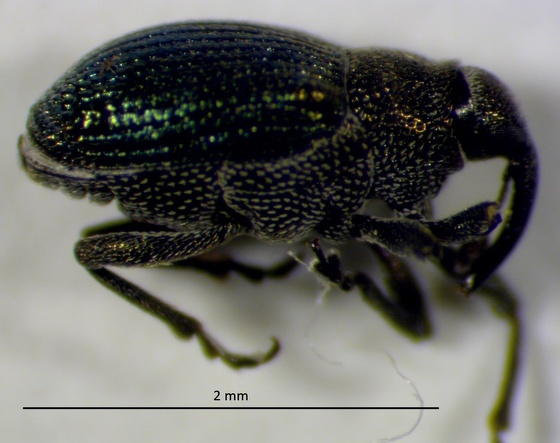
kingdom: Animalia
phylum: Arthropoda
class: Insecta
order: Coleoptera
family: Curculionidae
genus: Ceutorhynchus
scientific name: Ceutorhynchus erysimi
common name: Weevil
